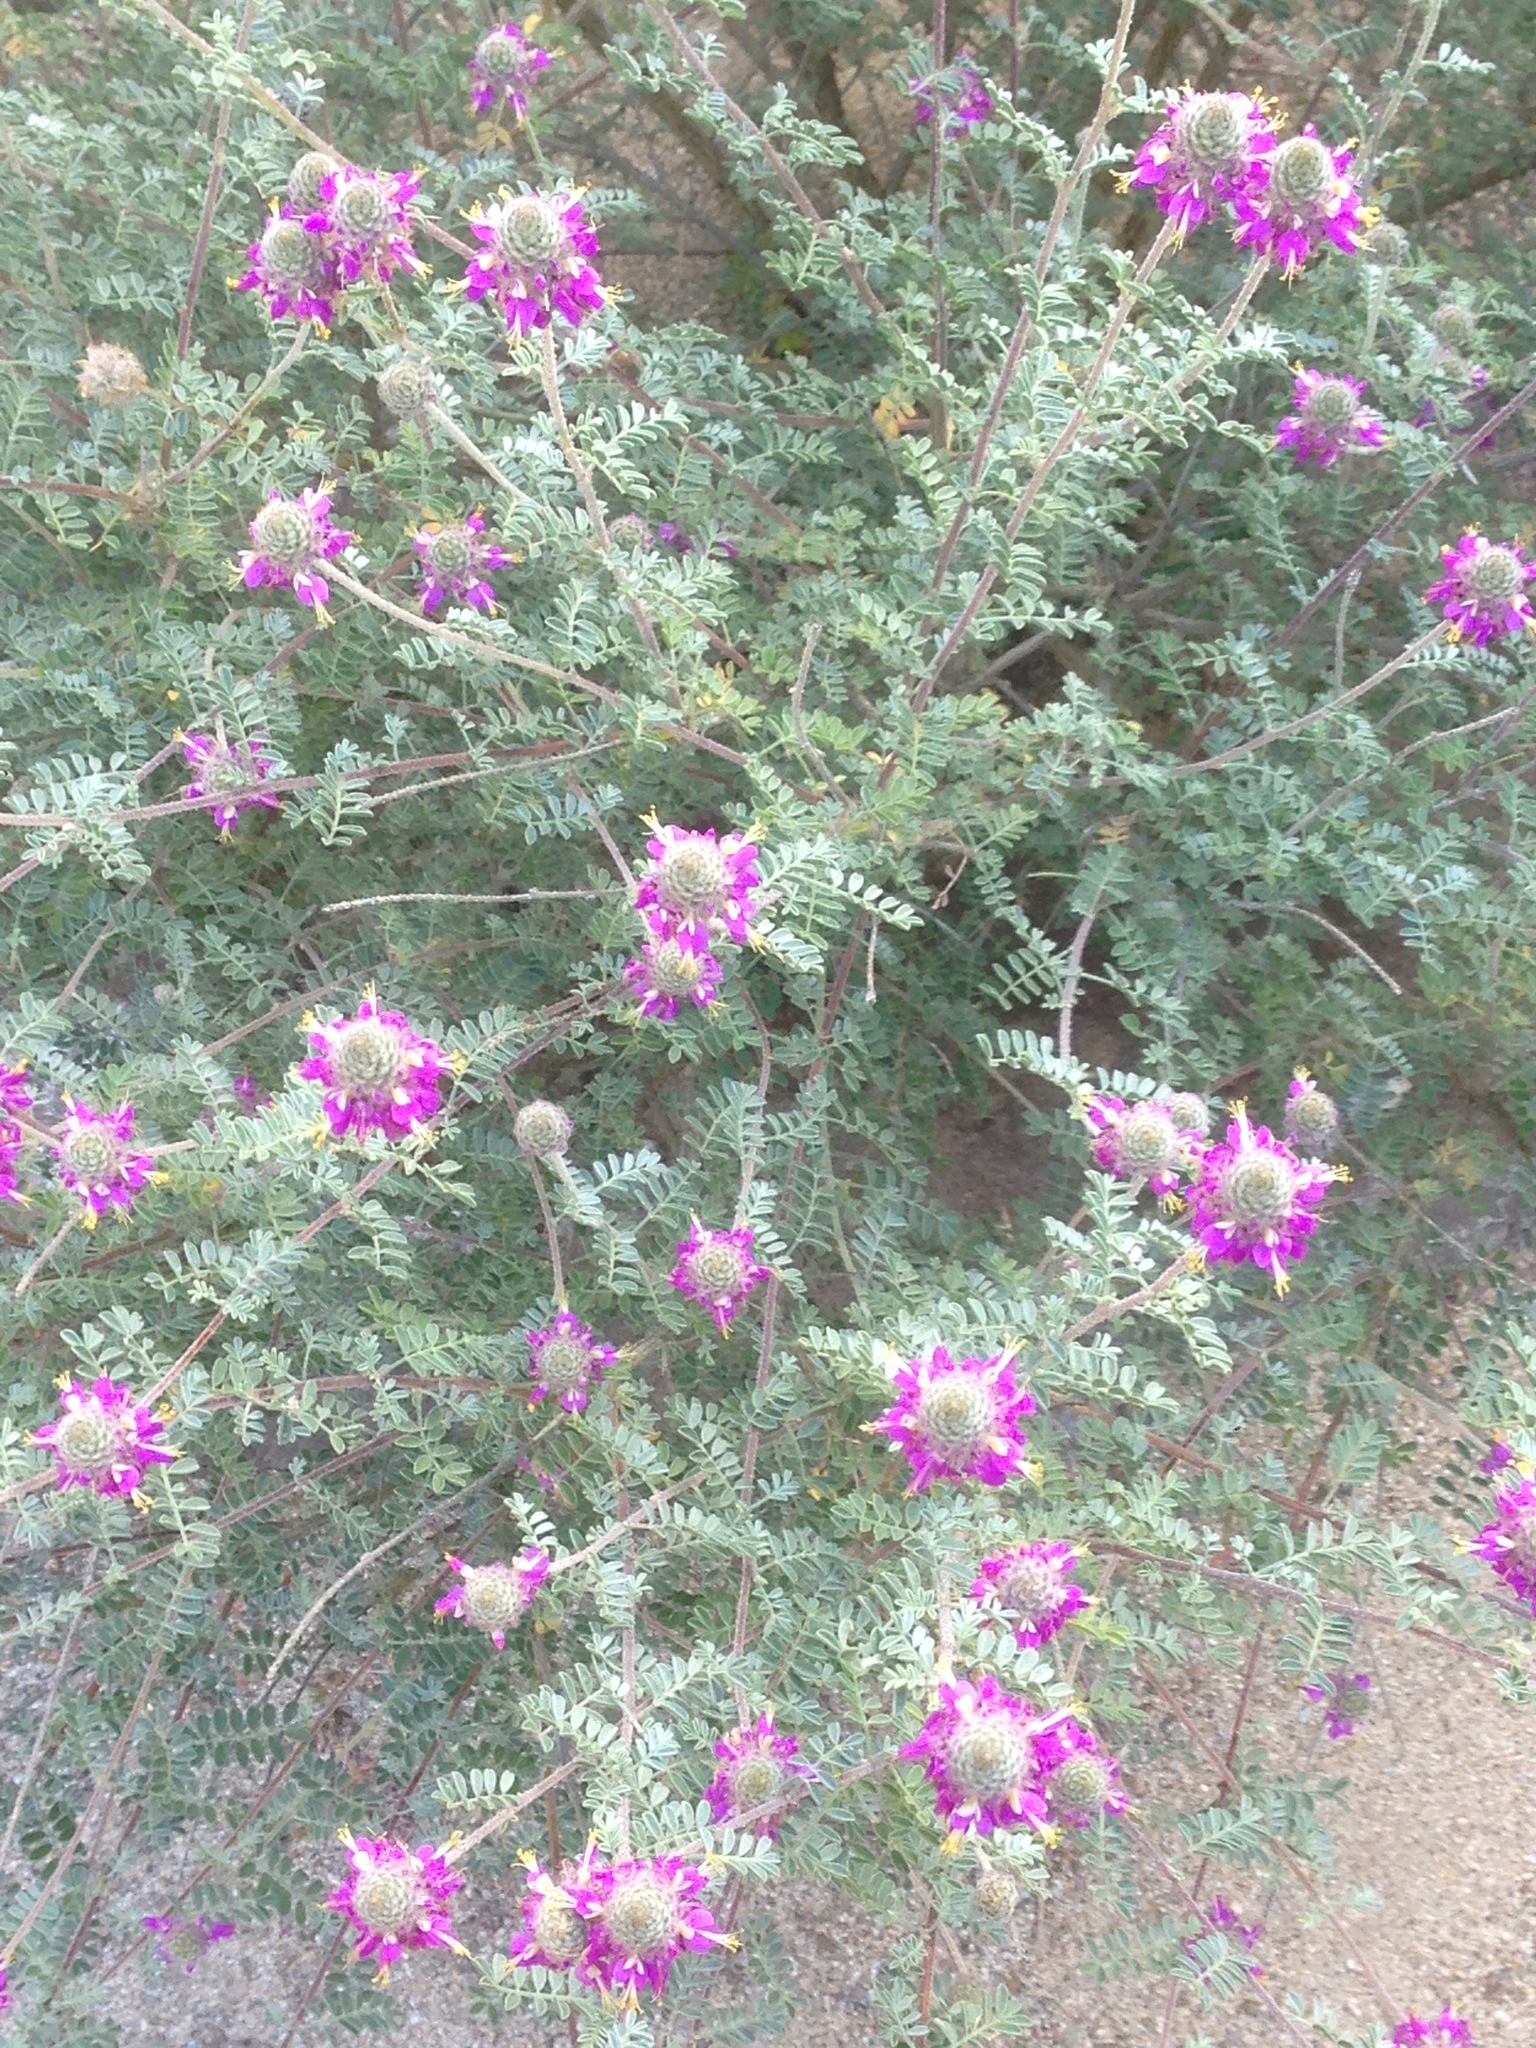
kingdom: Plantae
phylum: Tracheophyta
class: Magnoliopsida
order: Fabales
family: Fabaceae
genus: Dalea
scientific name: Dalea bicolor
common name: Silver prairie-clover
